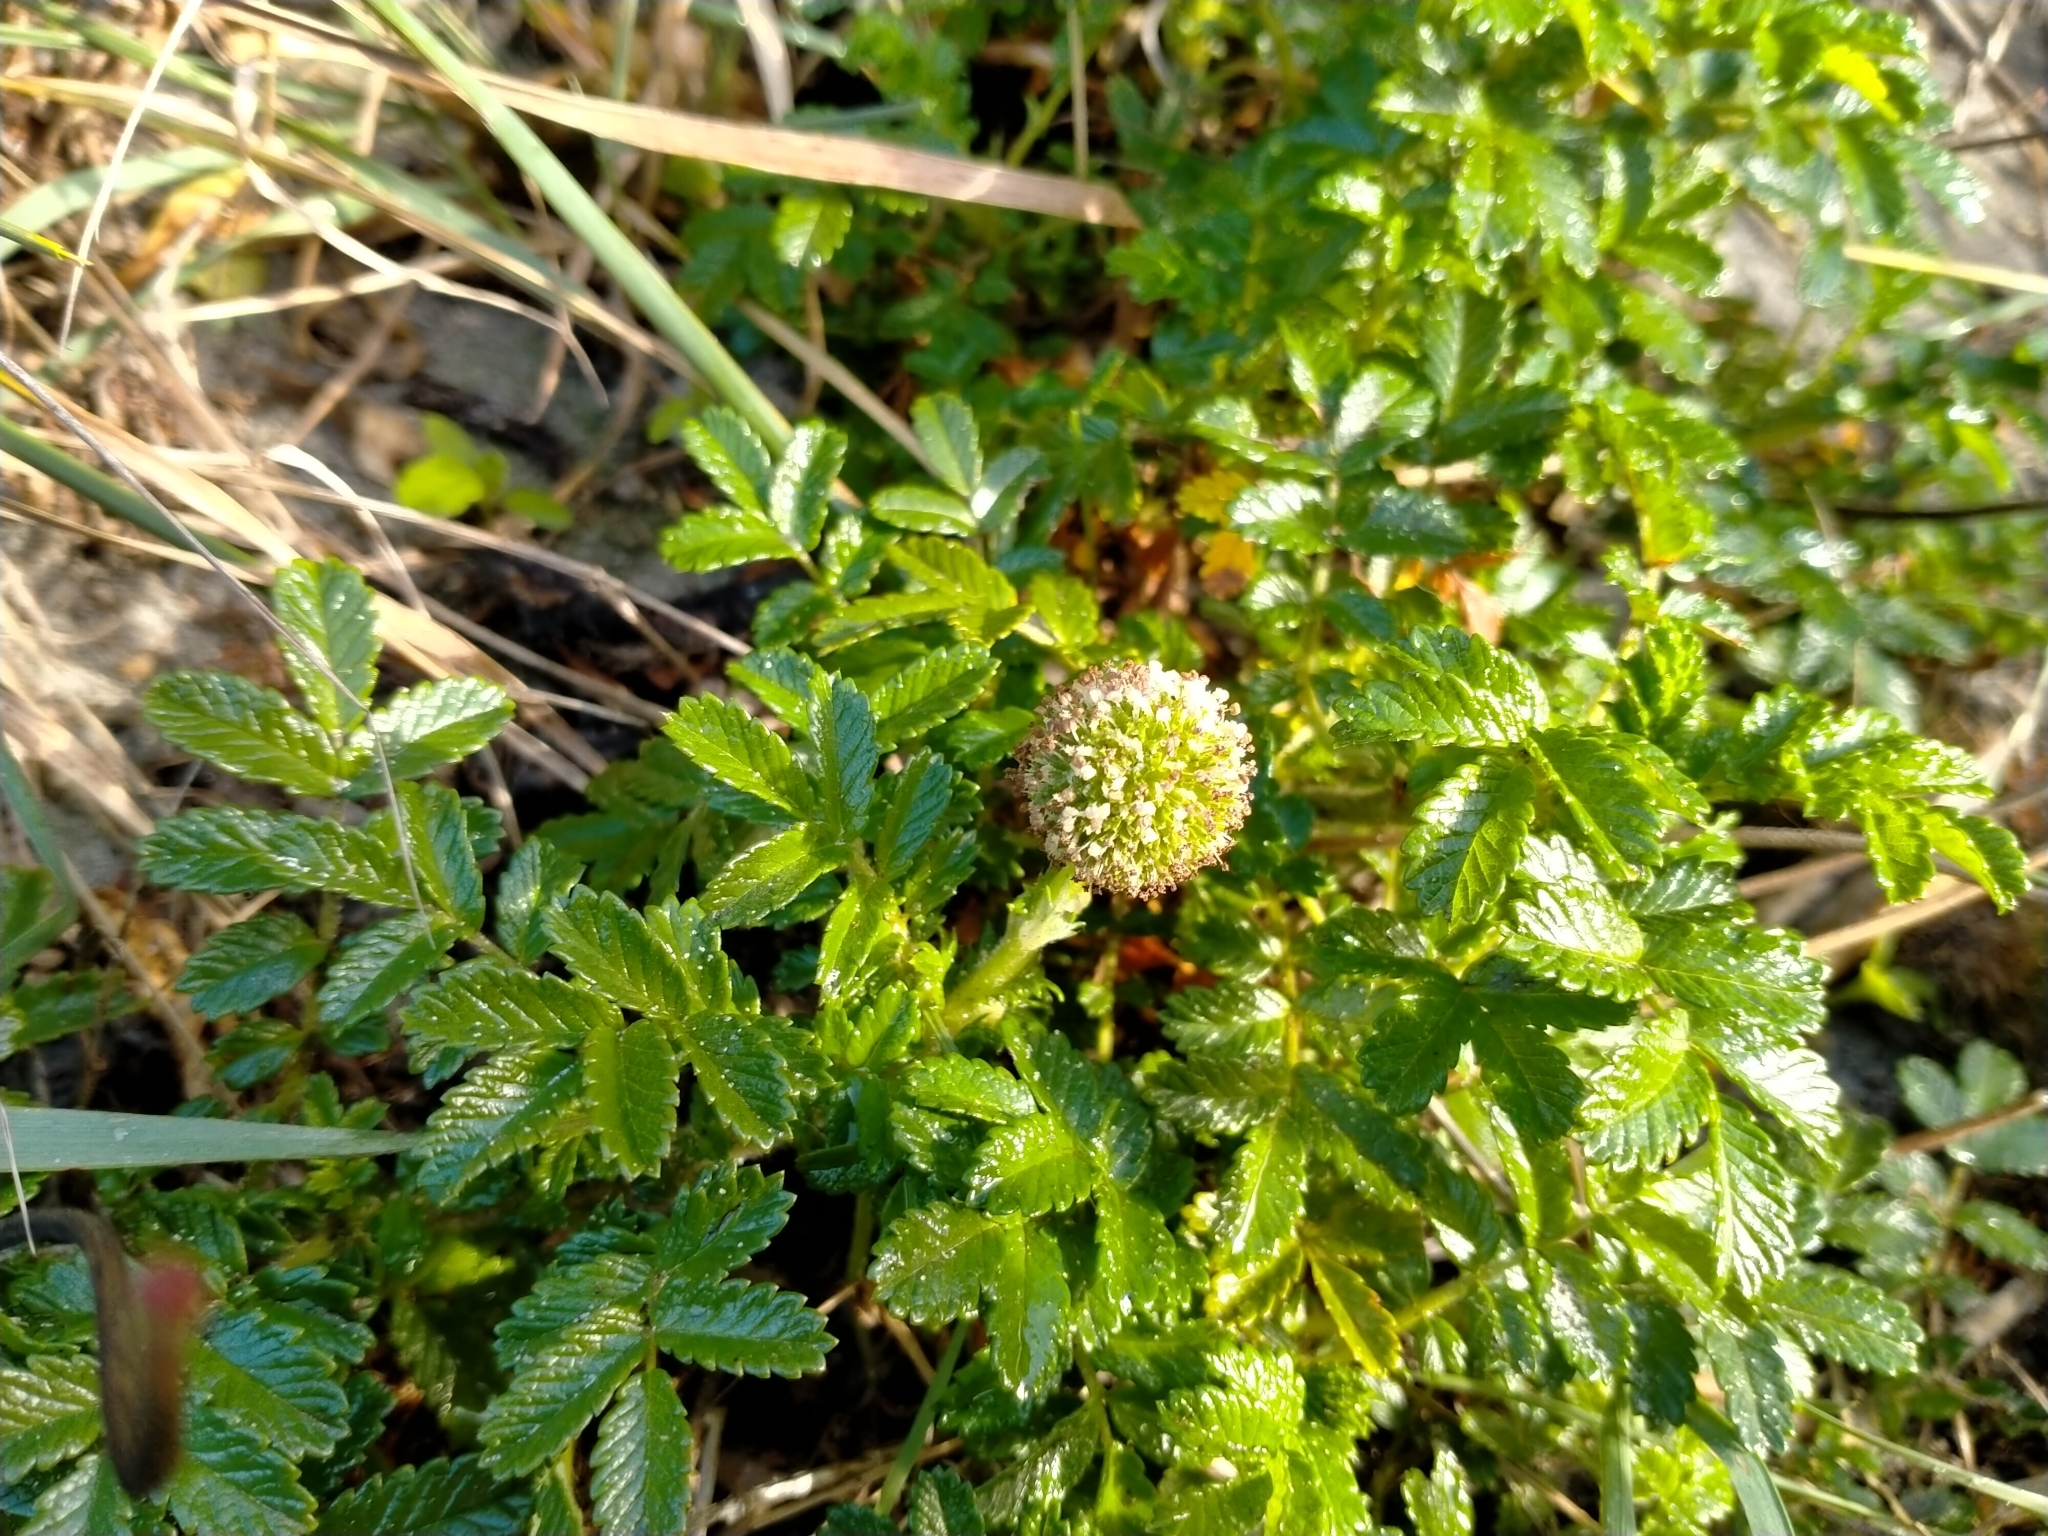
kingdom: Plantae
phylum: Tracheophyta
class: Magnoliopsida
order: Rosales
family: Rosaceae
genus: Acaena
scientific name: Acaena pallida
